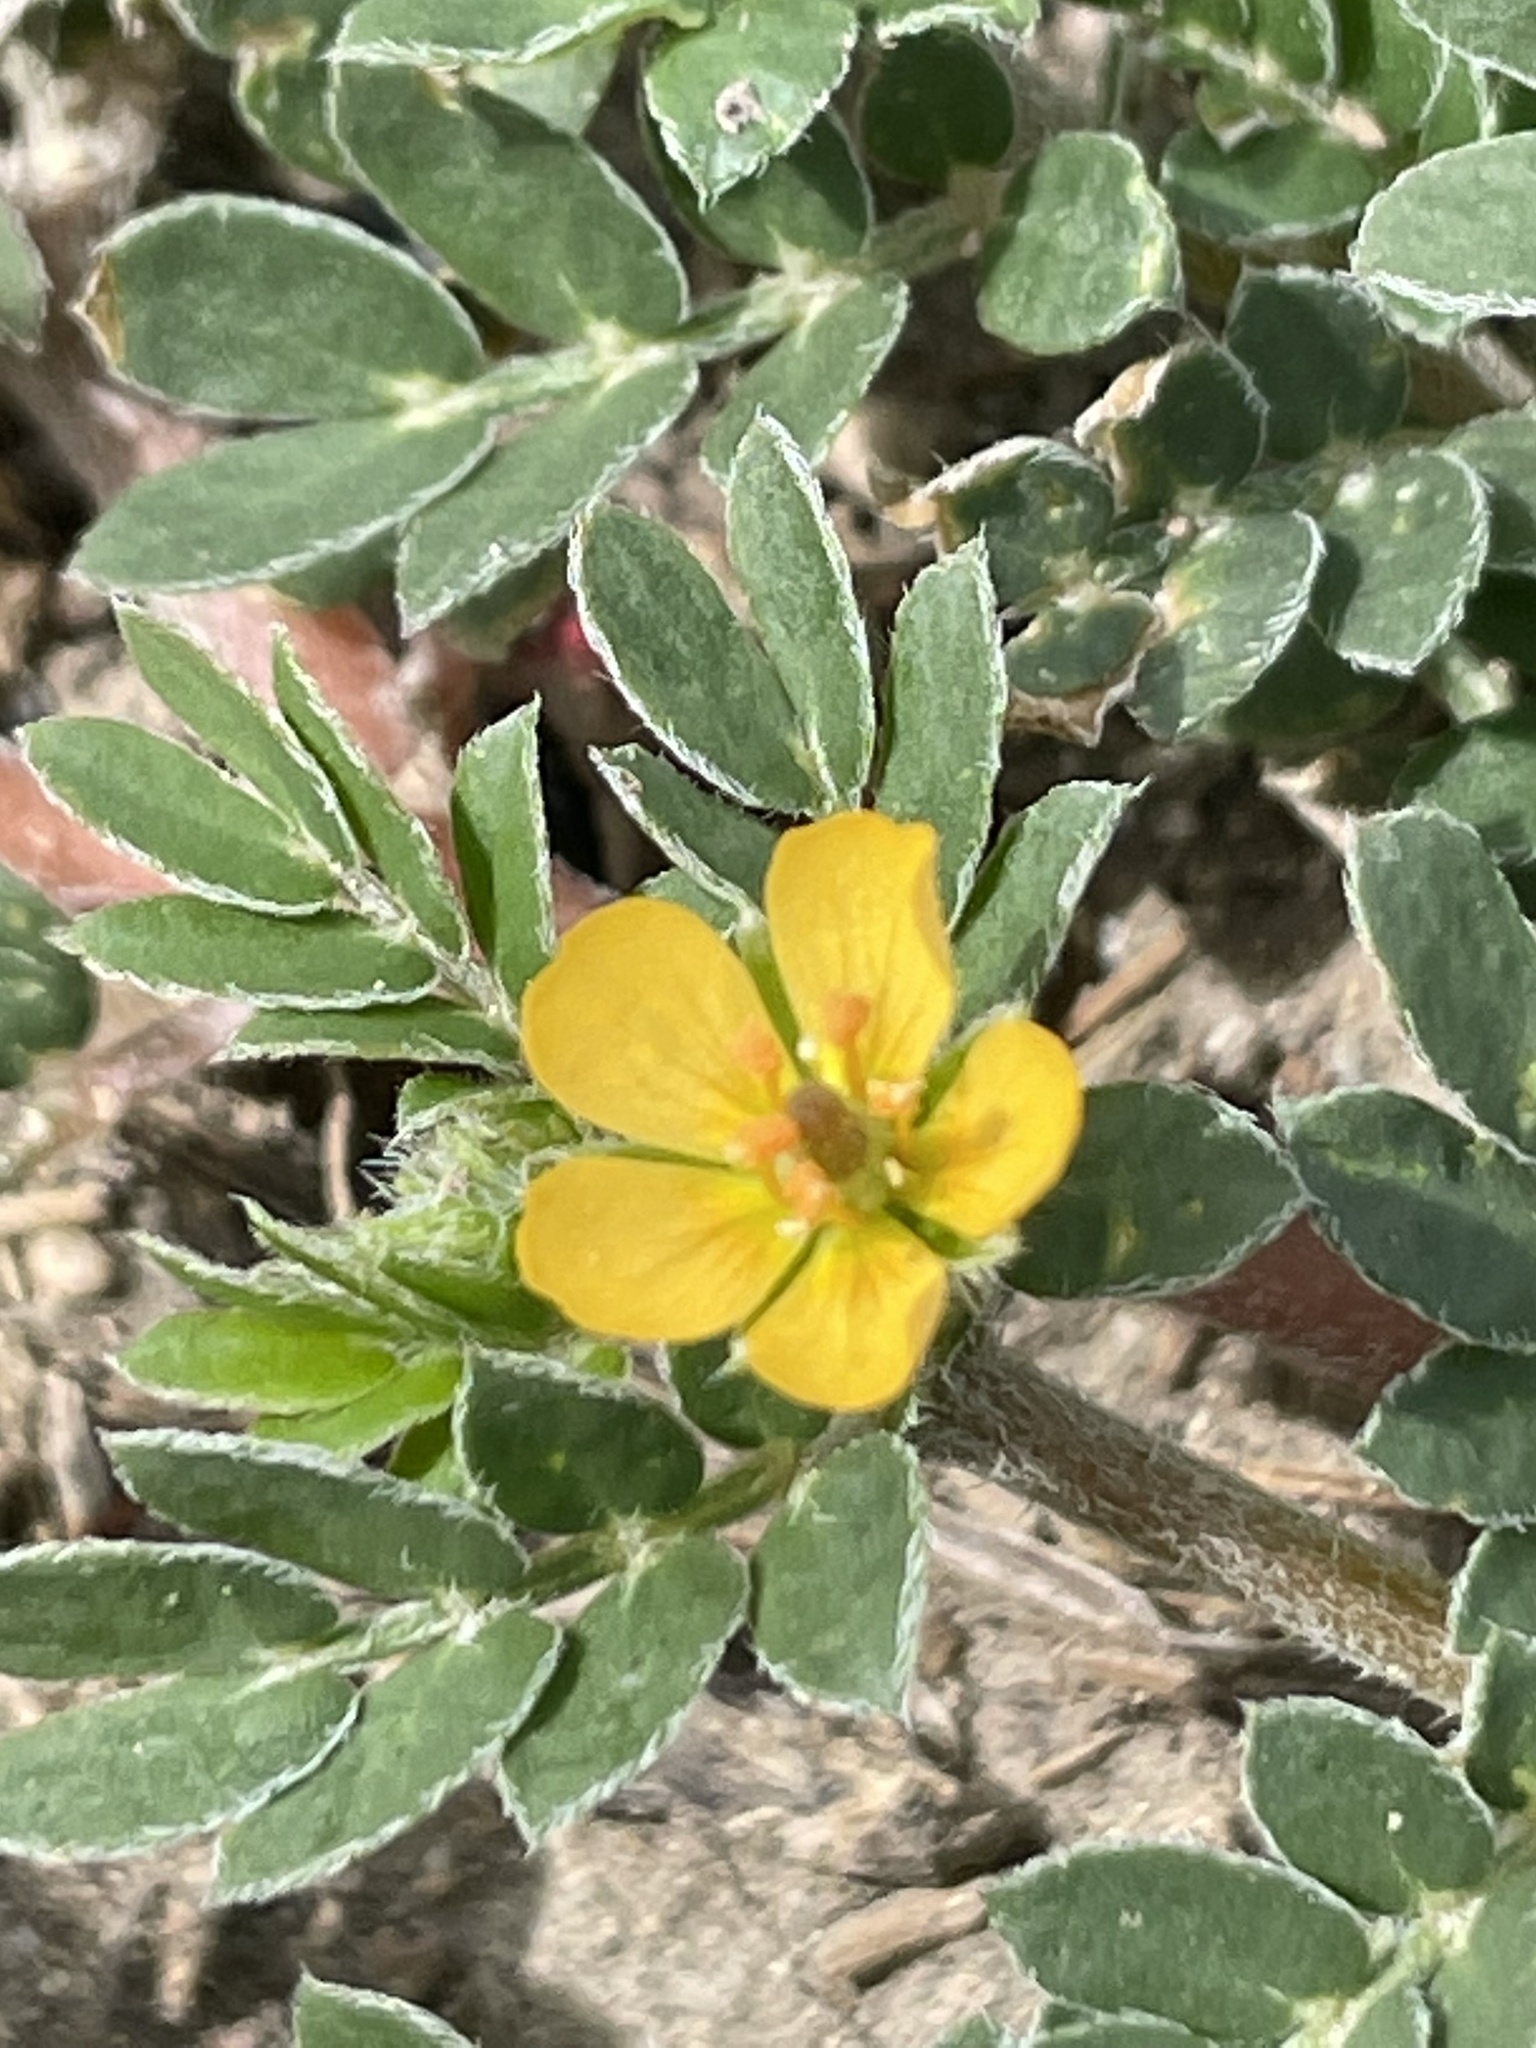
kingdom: Plantae
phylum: Tracheophyta
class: Magnoliopsida
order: Zygophyllales
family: Zygophyllaceae
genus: Kallstroemia
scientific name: Kallstroemia parviflora
